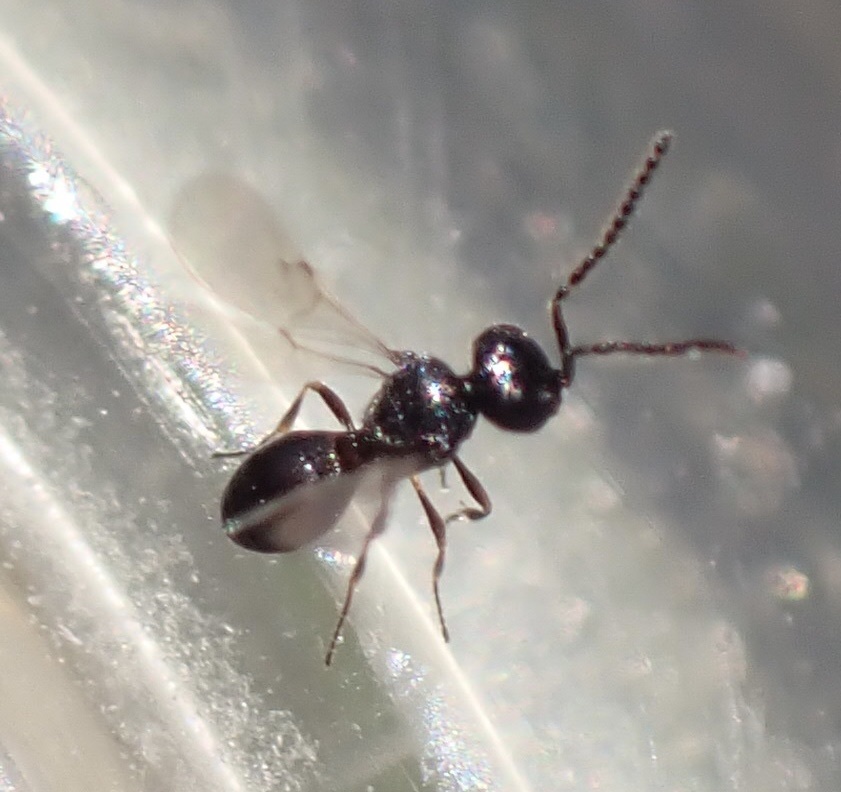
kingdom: Animalia
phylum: Arthropoda
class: Insecta
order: Hymenoptera
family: Scelionidae
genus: Anteris
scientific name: Anteris aethra
